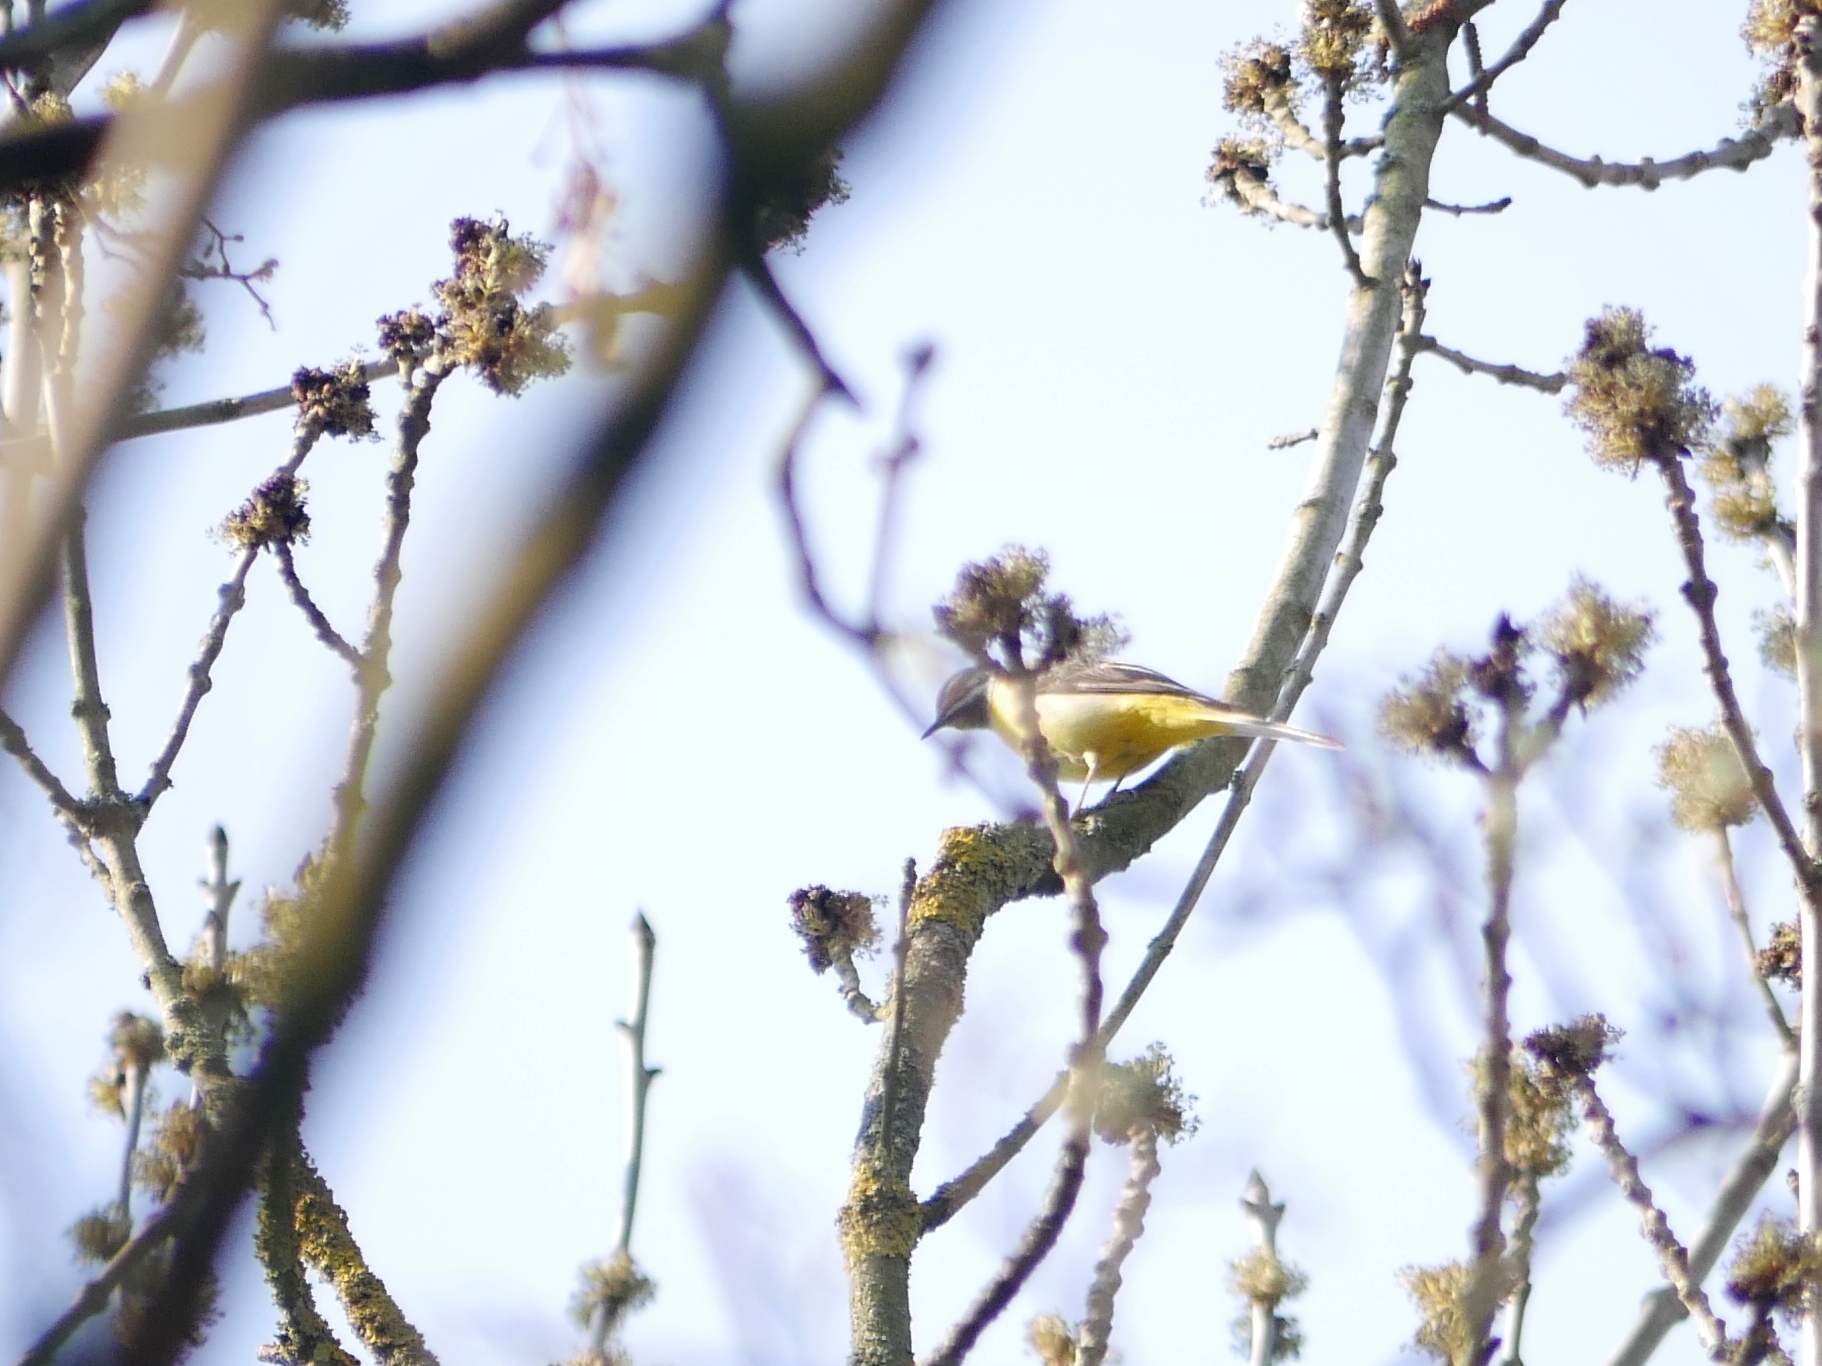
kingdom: Animalia
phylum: Chordata
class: Aves
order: Passeriformes
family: Motacillidae
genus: Motacilla
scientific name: Motacilla cinerea
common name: Grey wagtail
